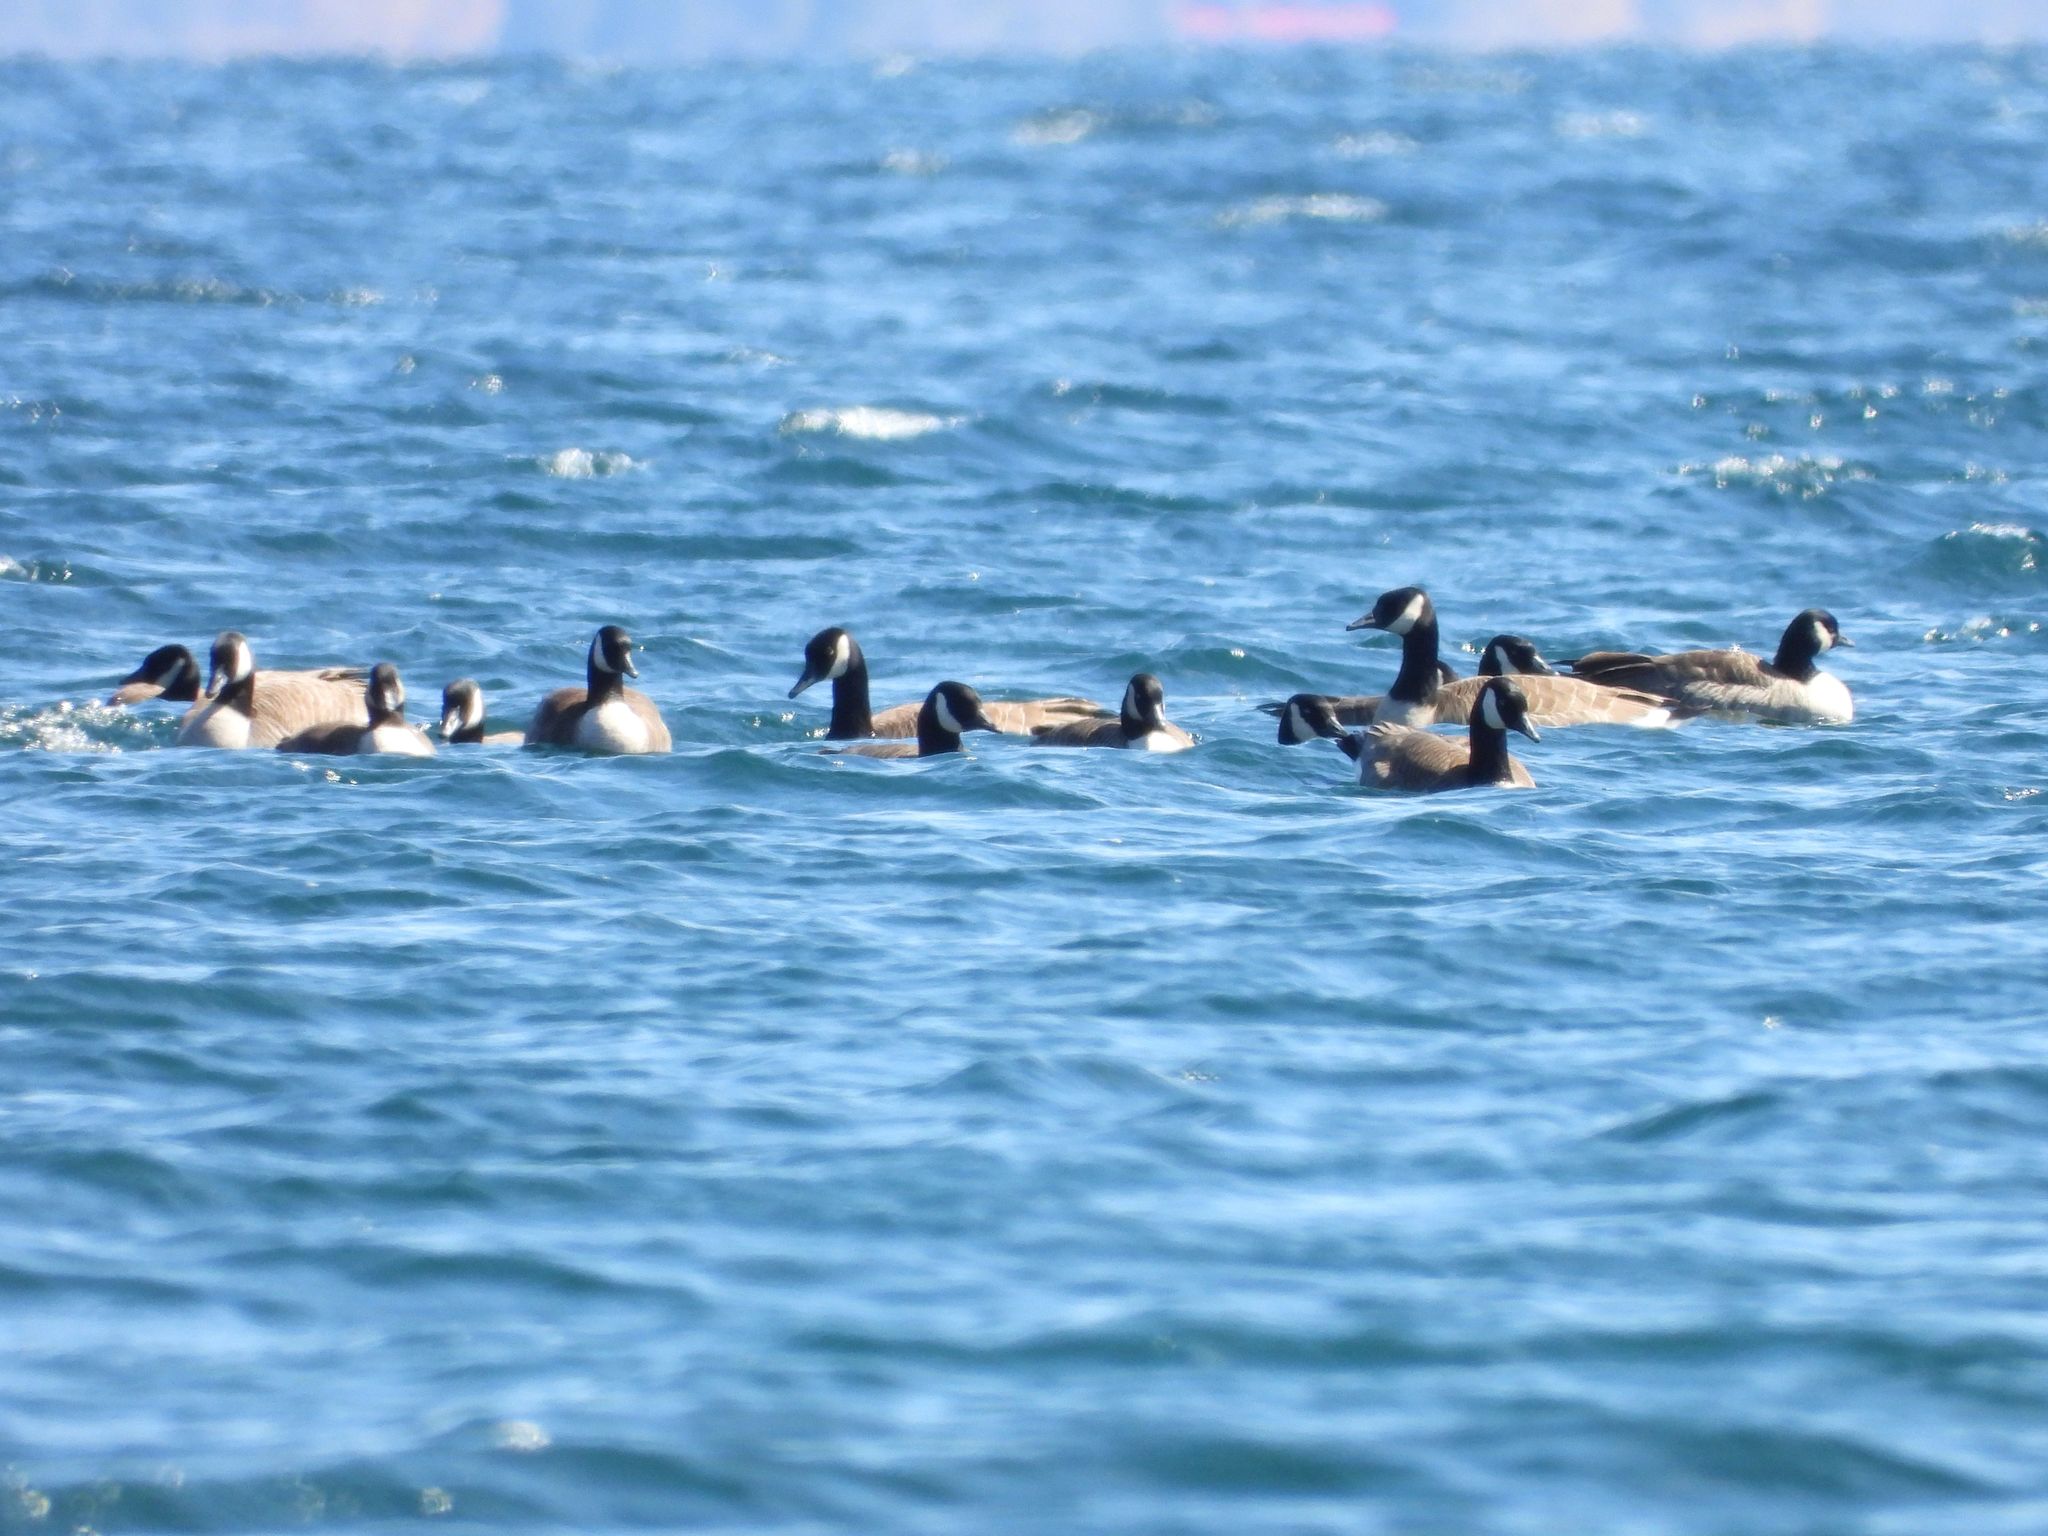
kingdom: Animalia
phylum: Chordata
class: Aves
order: Anseriformes
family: Anatidae
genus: Branta
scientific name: Branta canadensis
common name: Canada goose
